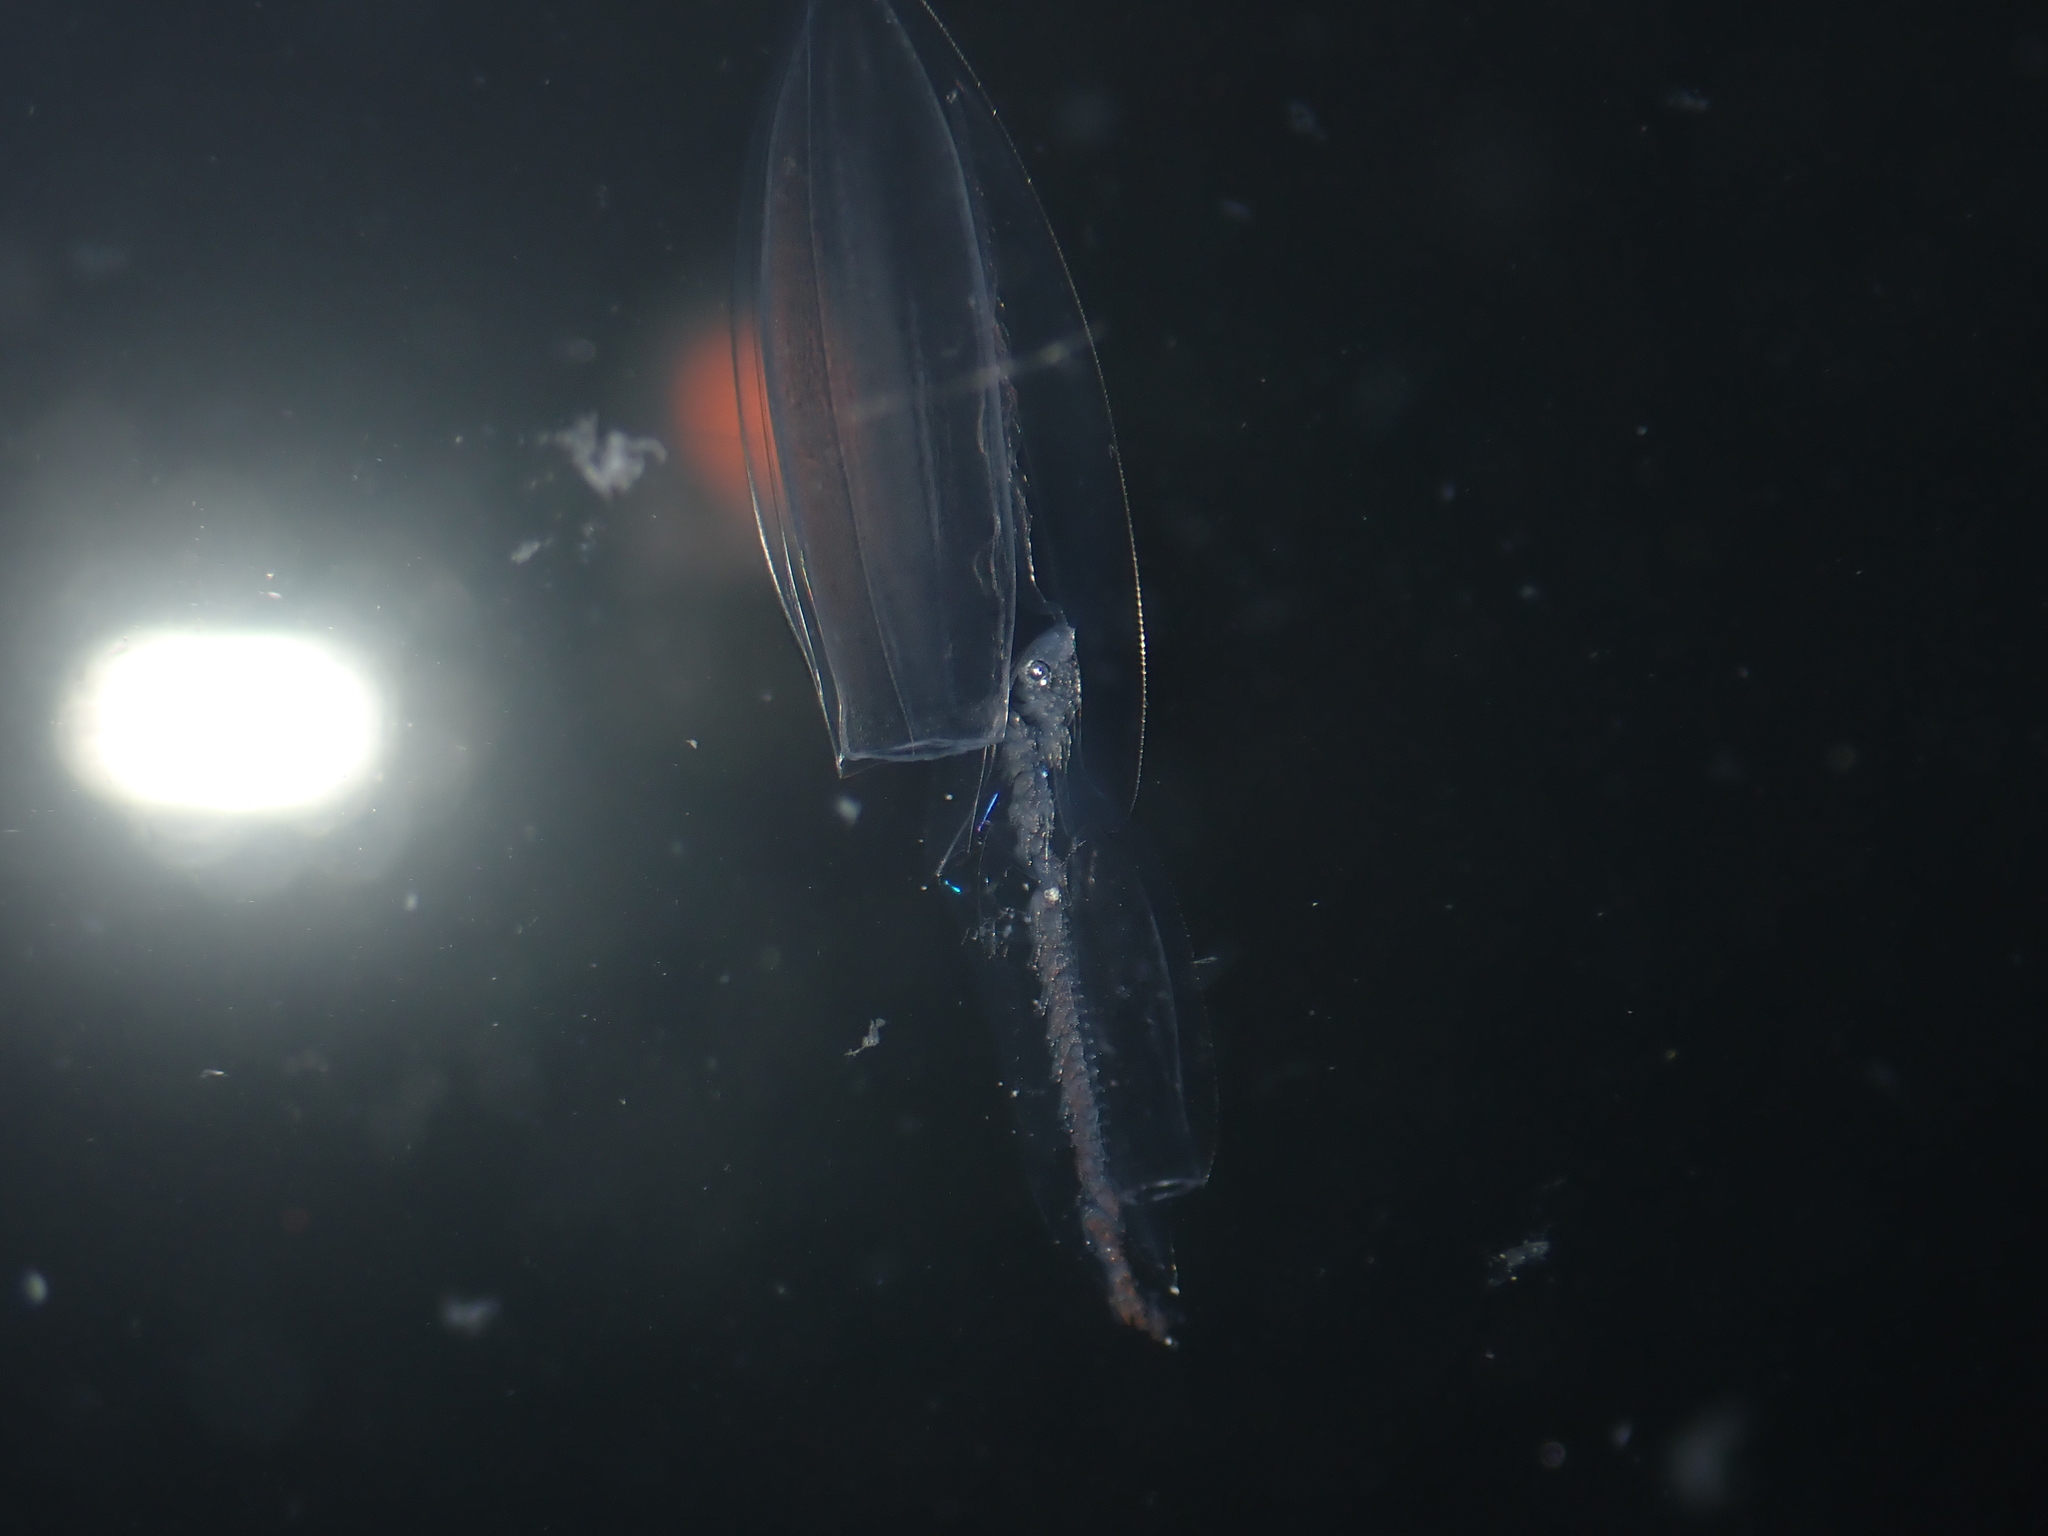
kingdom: Animalia
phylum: Cnidaria
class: Hydrozoa
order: Siphonophorae
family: Diphyidae
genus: Chelophyes
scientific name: Chelophyes appendiculata
